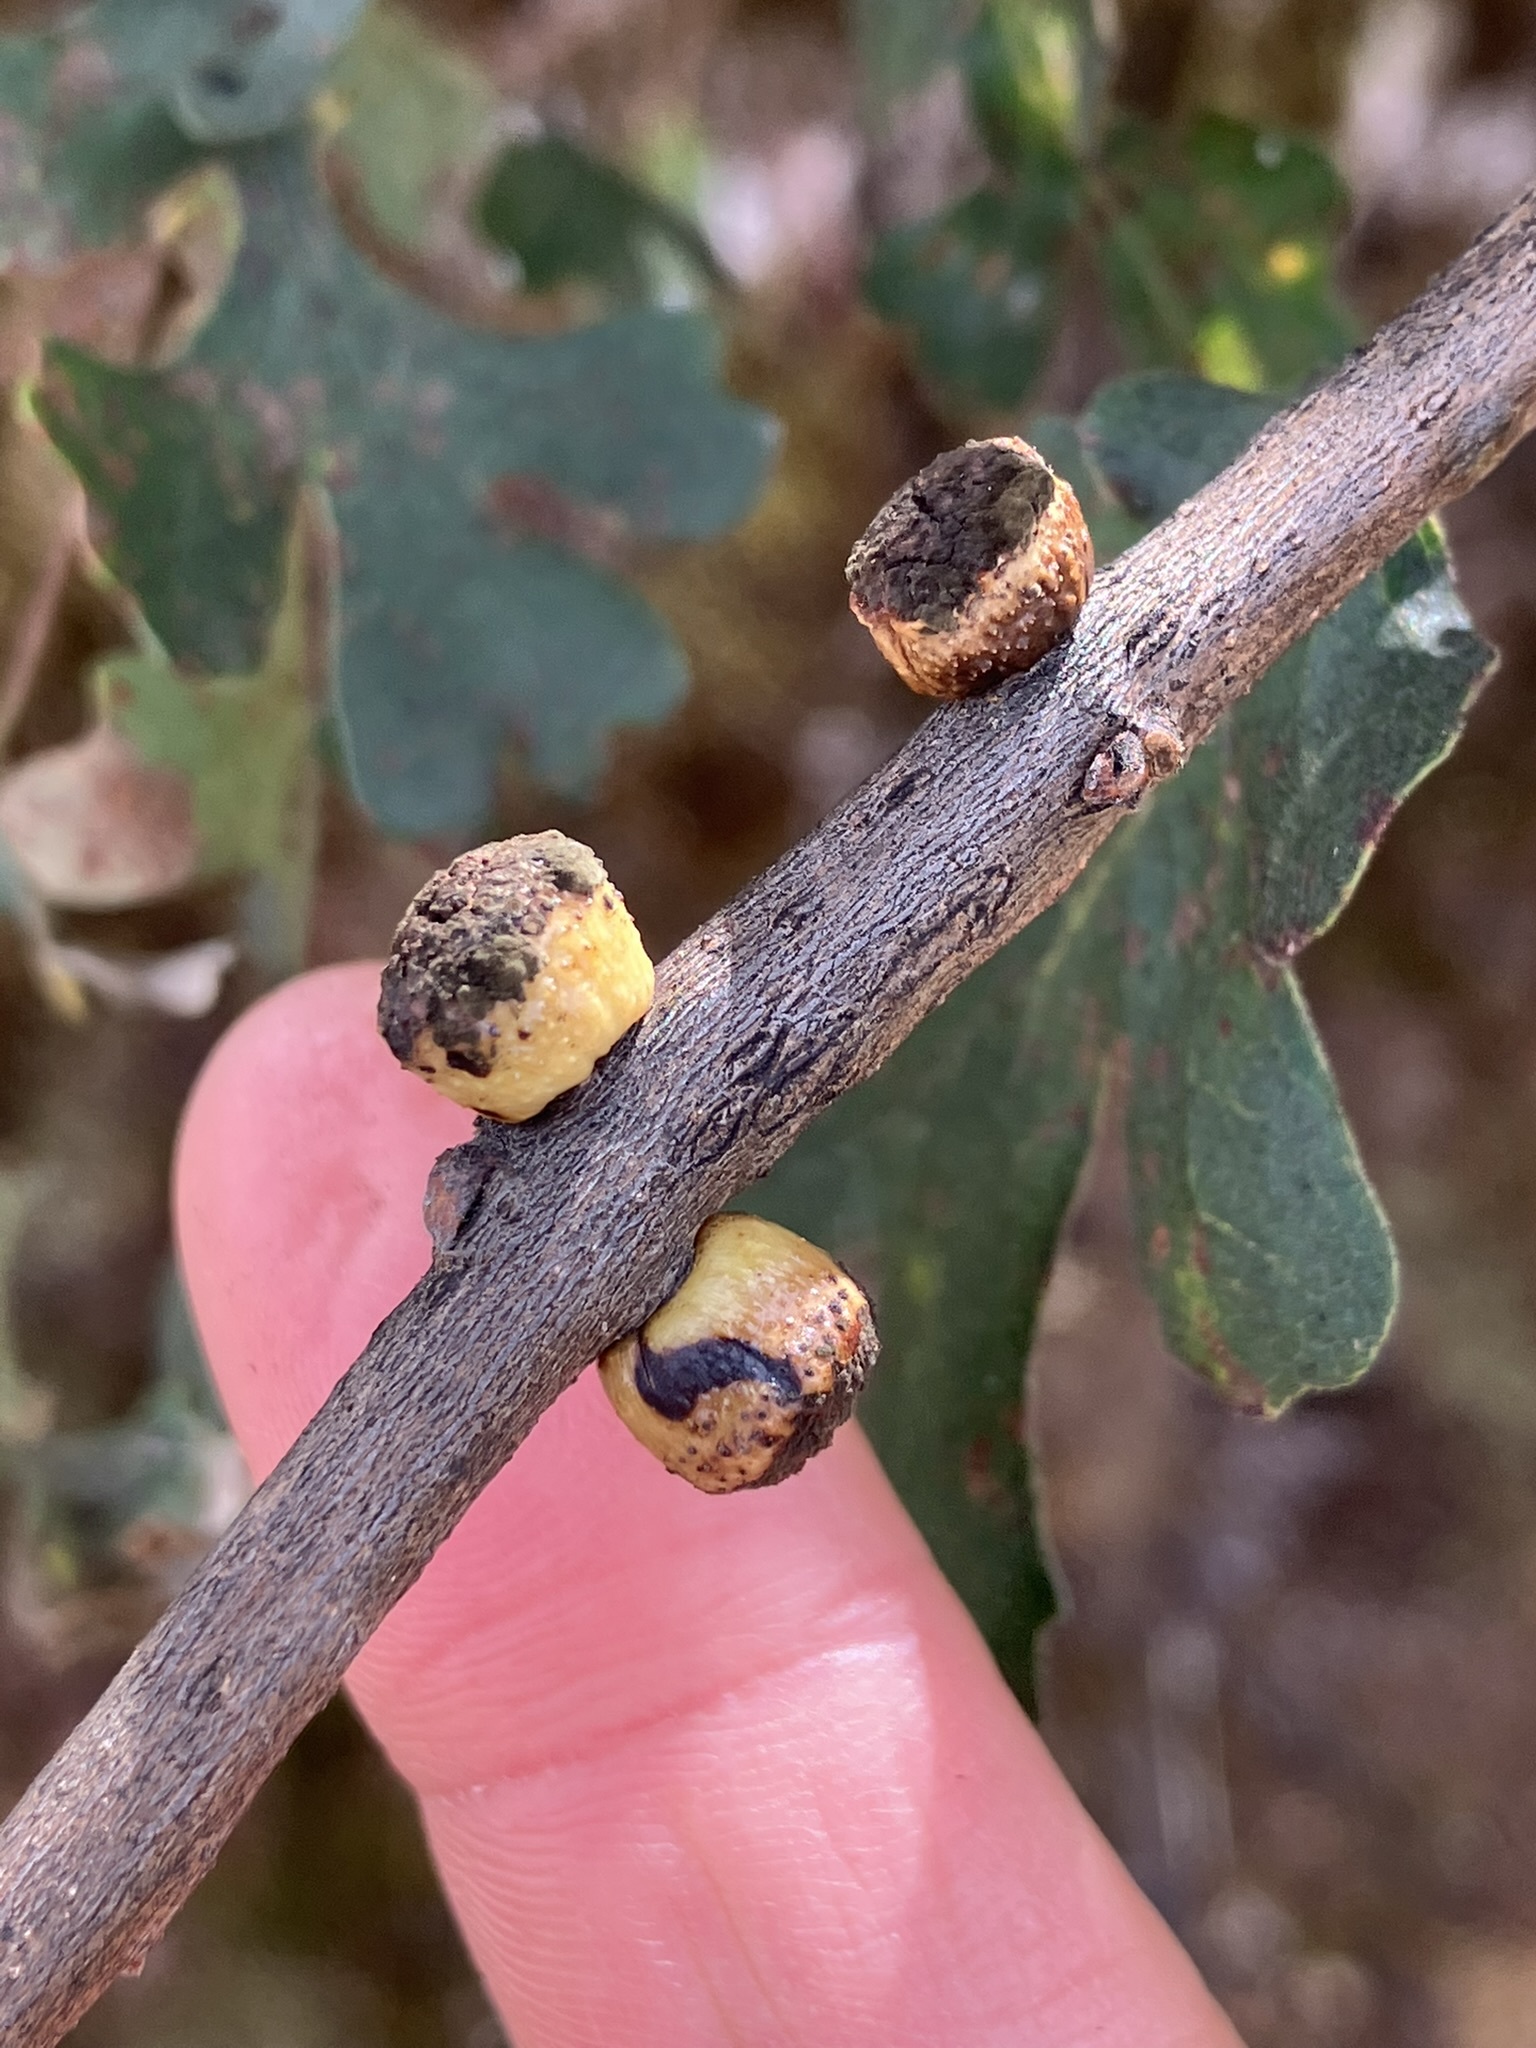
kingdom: Animalia
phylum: Arthropoda
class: Insecta
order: Hymenoptera
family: Cynipidae
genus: Disholcaspis
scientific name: Disholcaspis
